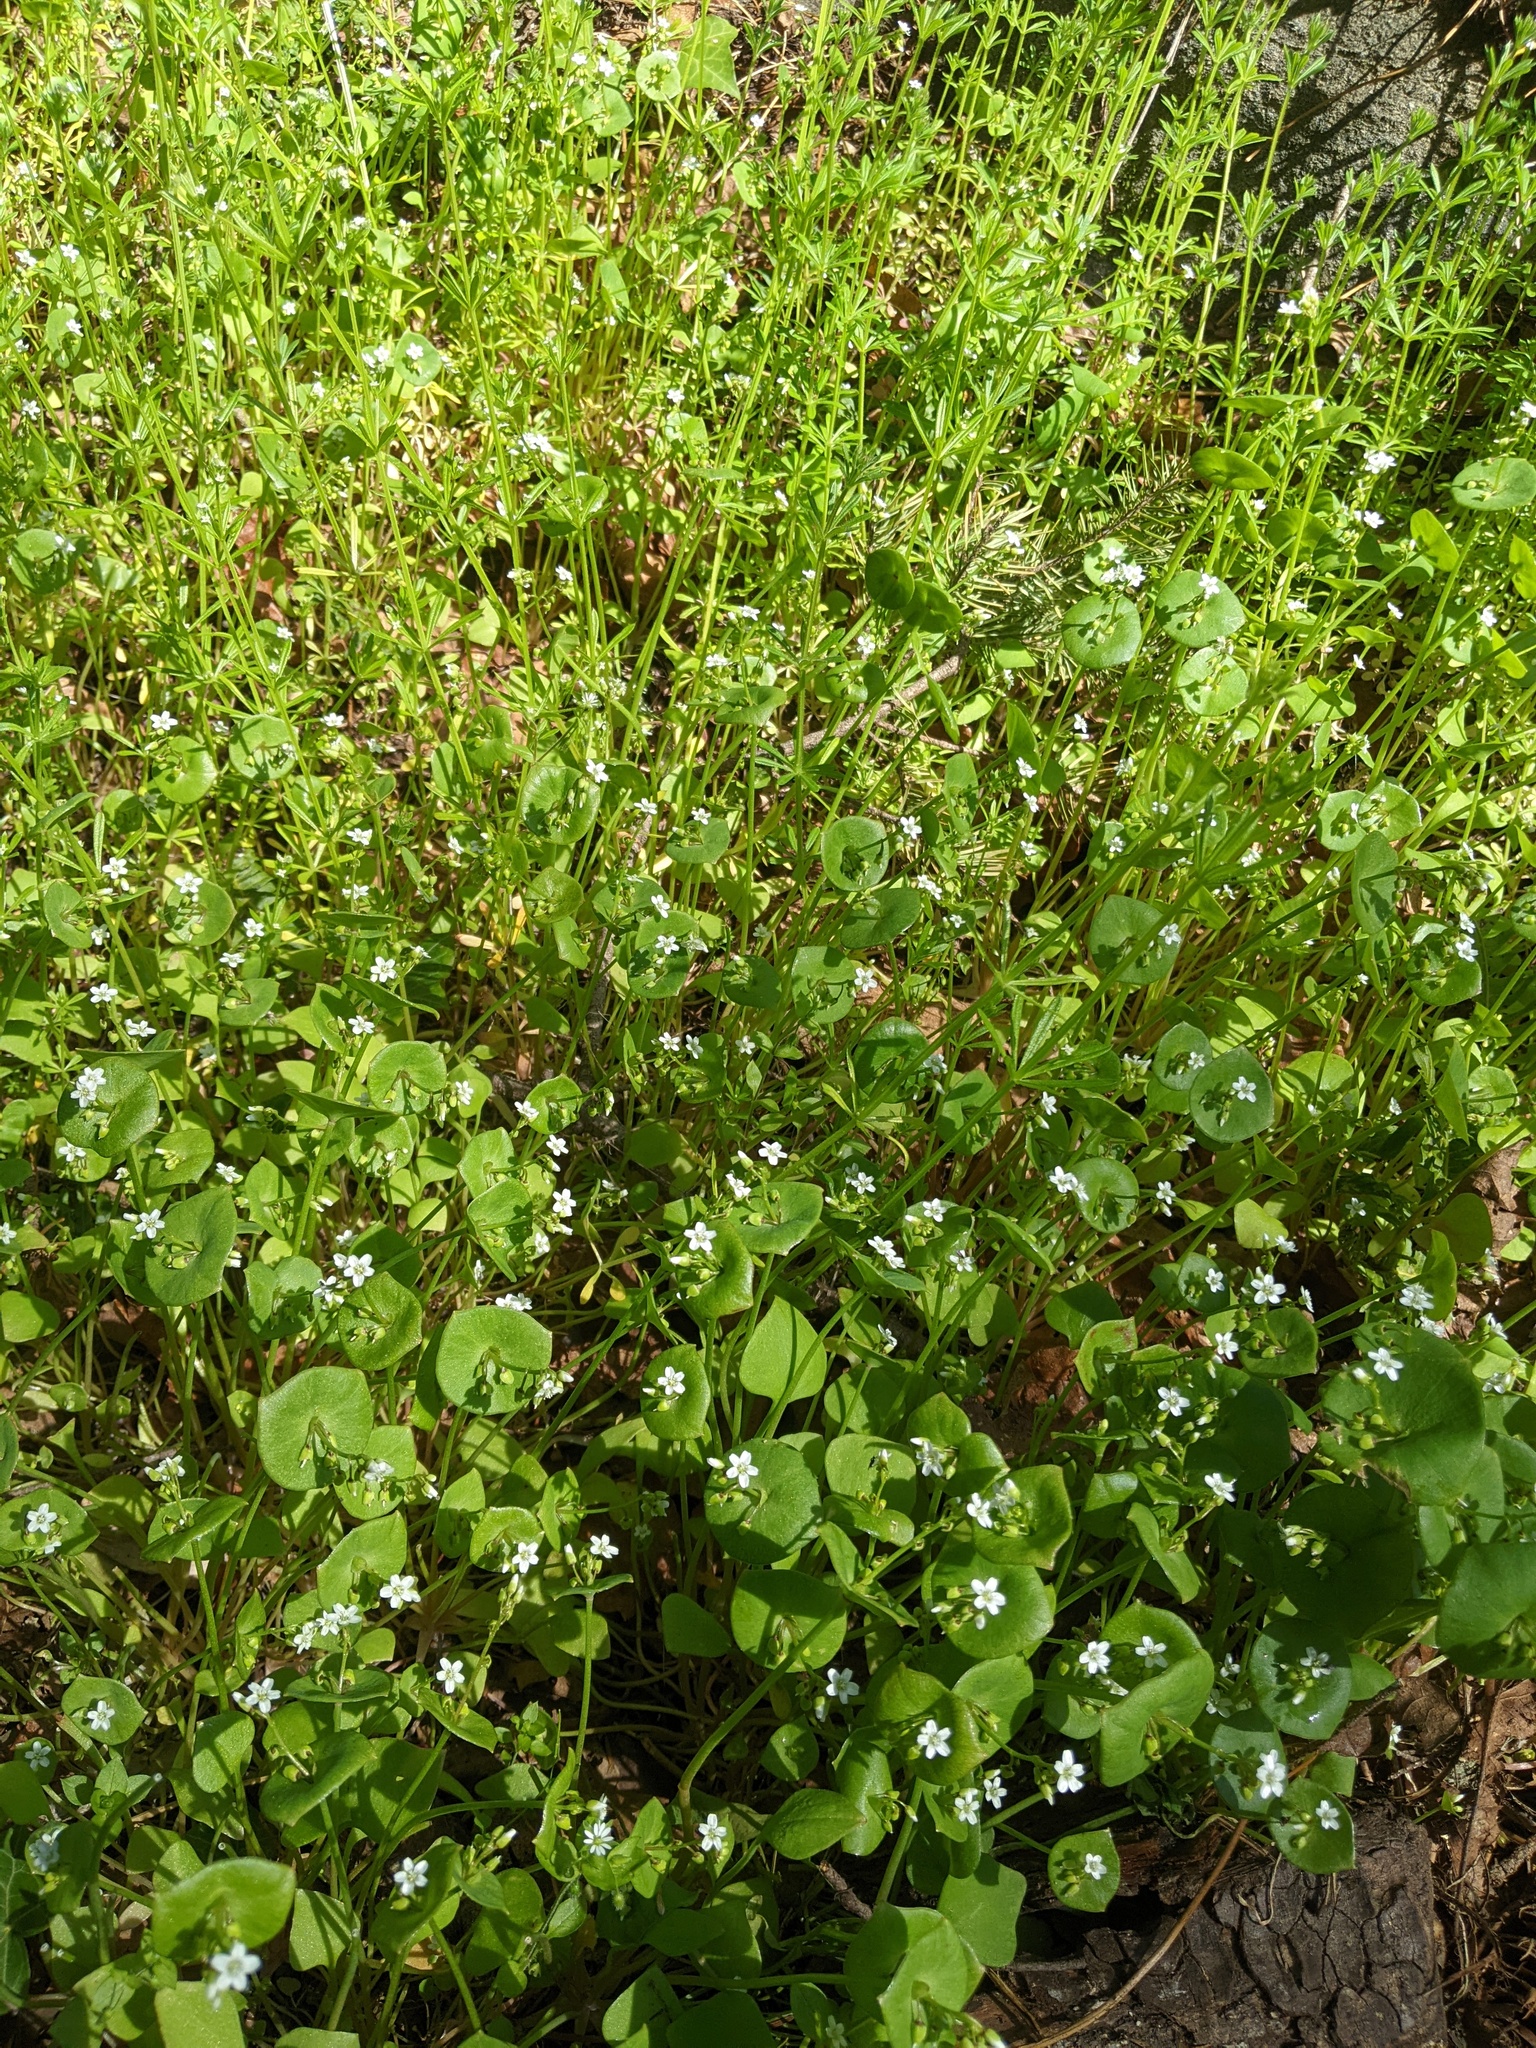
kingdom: Plantae
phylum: Tracheophyta
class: Magnoliopsida
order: Caryophyllales
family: Montiaceae
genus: Claytonia
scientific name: Claytonia perfoliata
